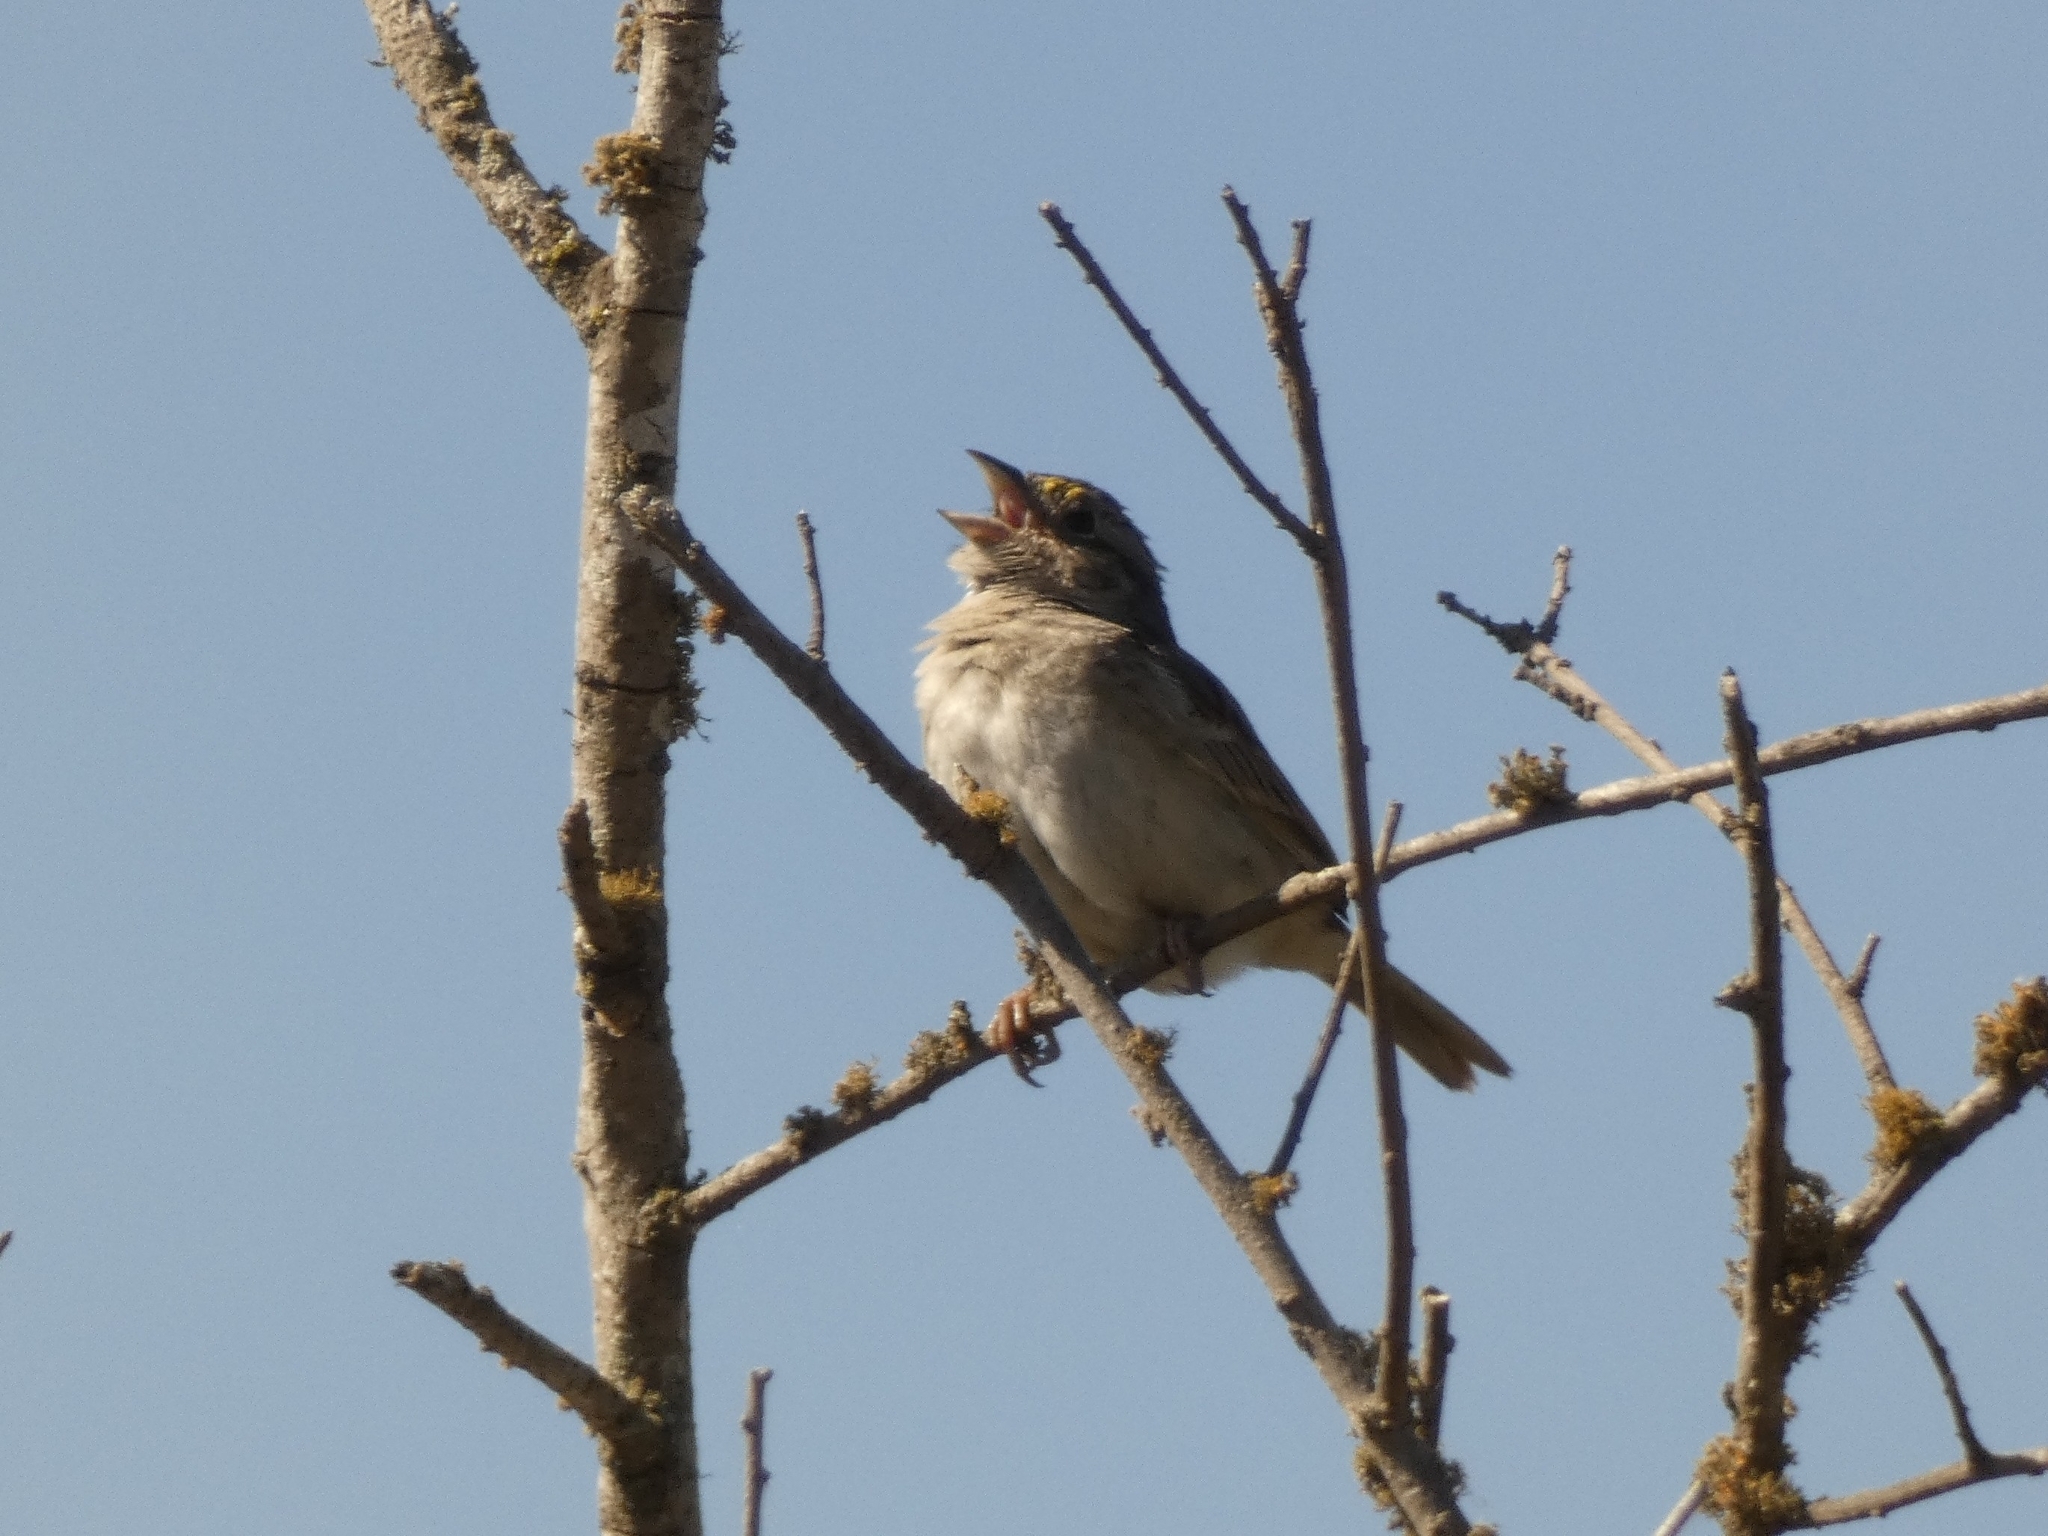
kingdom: Animalia
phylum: Chordata
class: Aves
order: Passeriformes
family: Passerellidae
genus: Ammodramus
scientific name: Ammodramus humeralis
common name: Grassland sparrow
